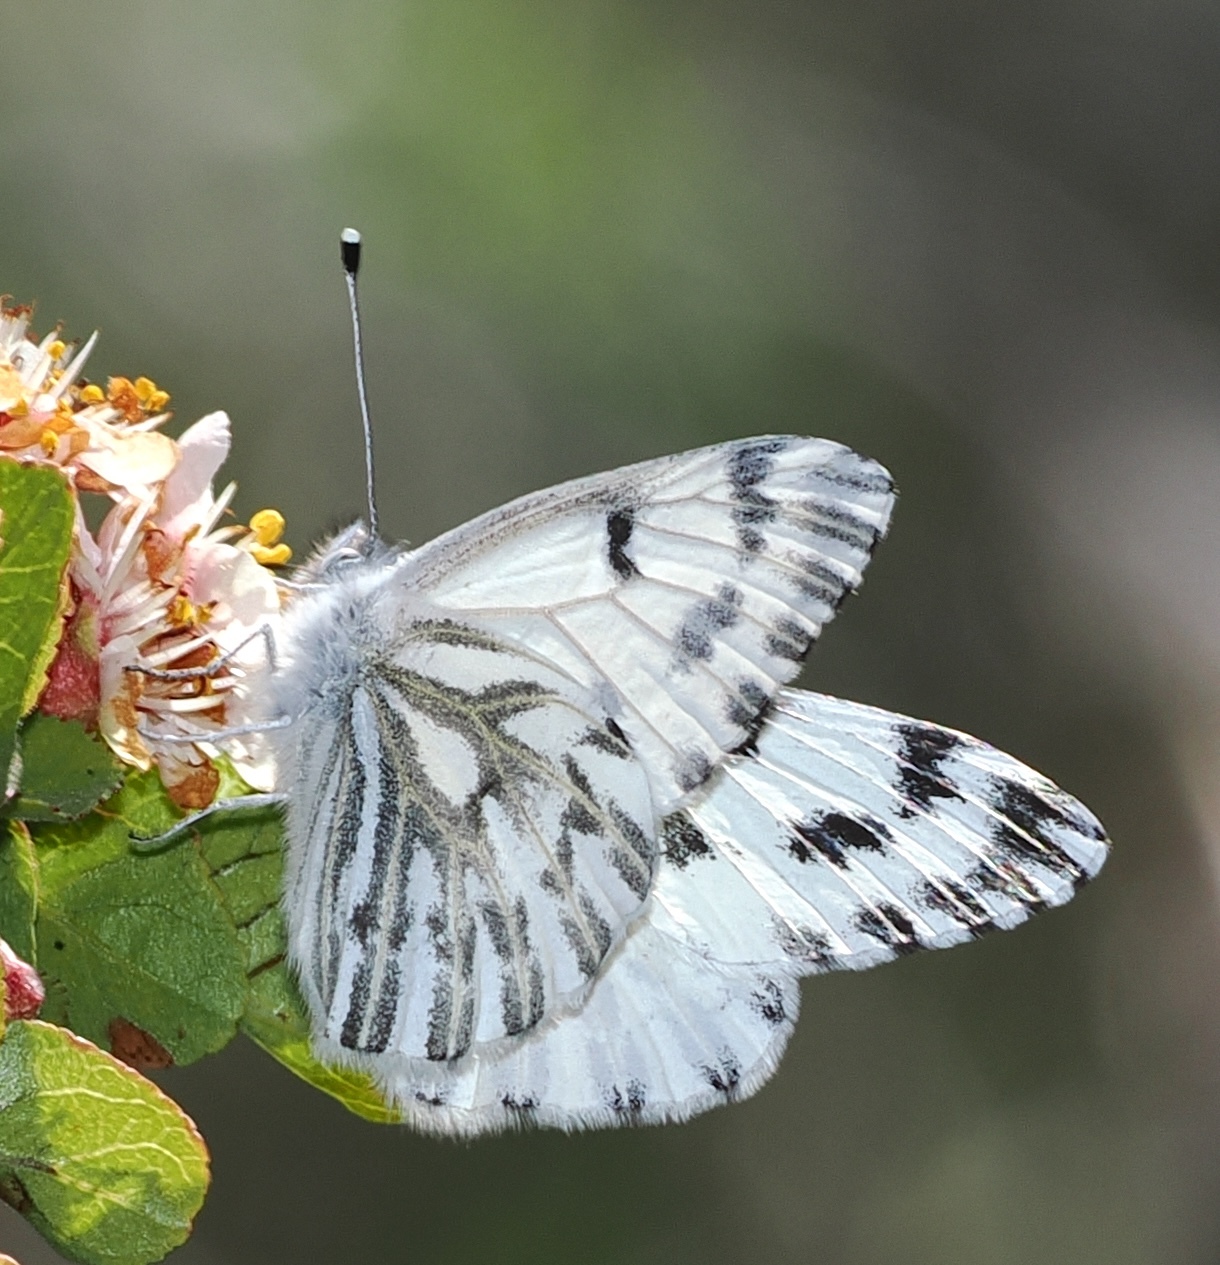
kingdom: Animalia
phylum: Arthropoda
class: Insecta
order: Lepidoptera
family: Pieridae
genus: Pontia
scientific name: Pontia sisymbrii
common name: California white
